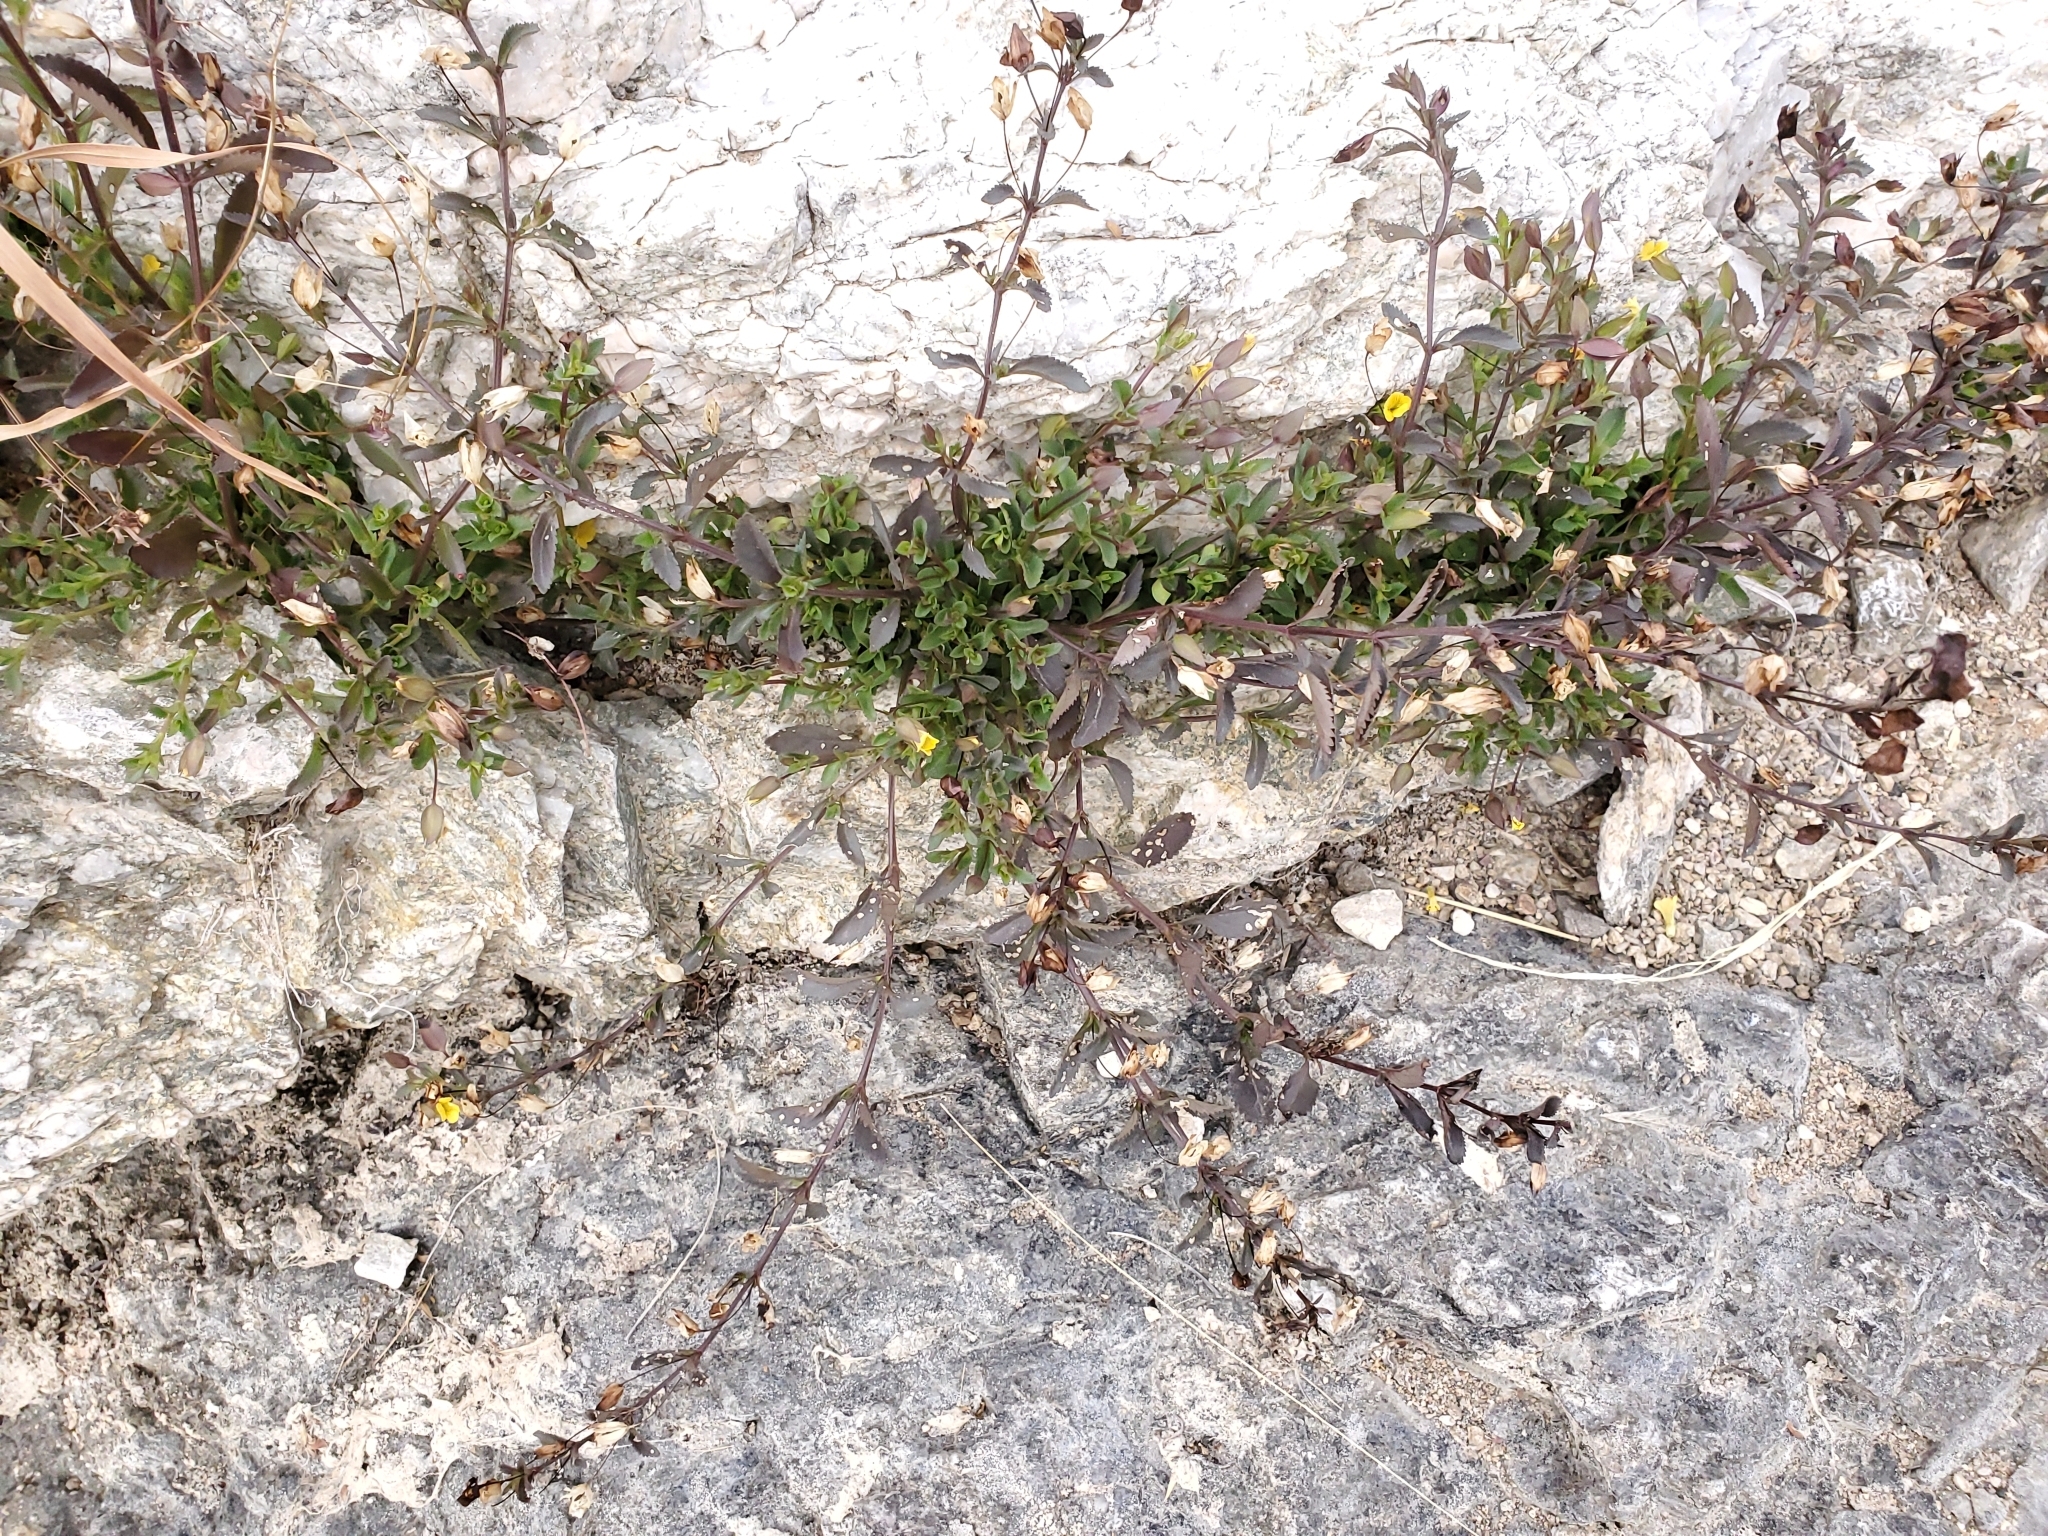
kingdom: Plantae
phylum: Tracheophyta
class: Magnoliopsida
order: Lamiales
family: Plantaginaceae
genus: Mecardonia
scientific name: Mecardonia procumbens
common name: Baby jump-up
